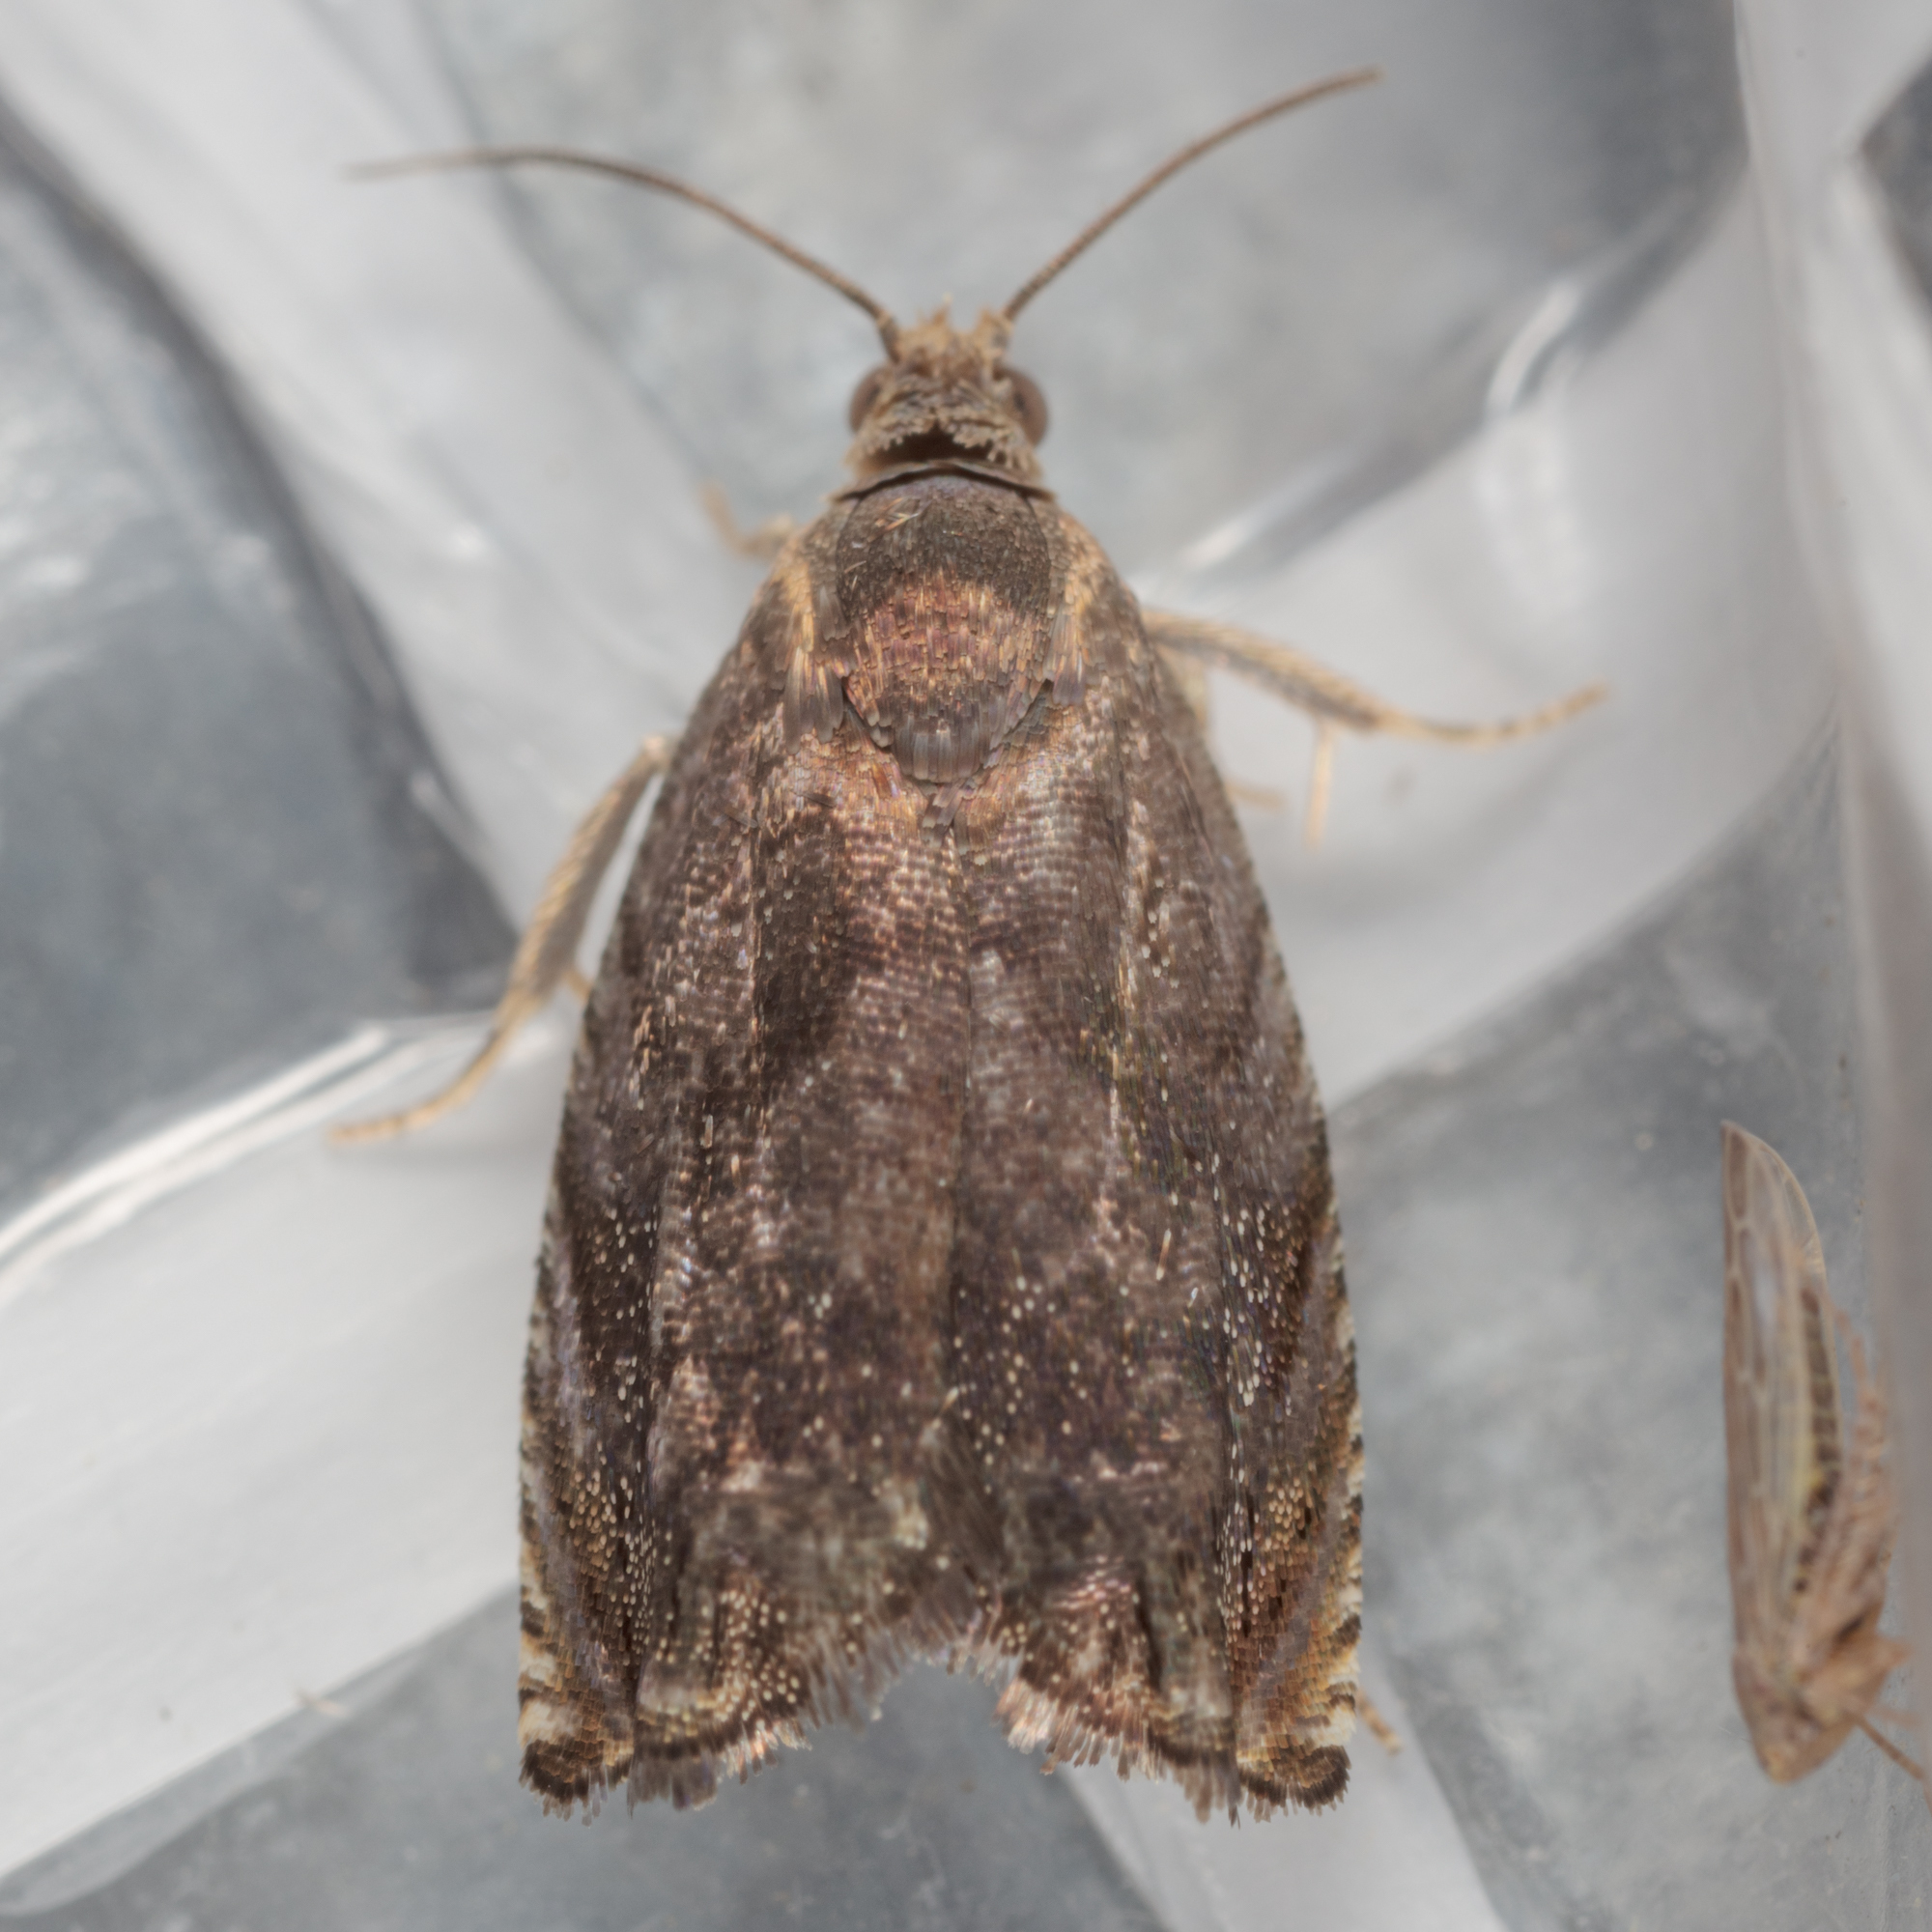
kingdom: Animalia
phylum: Arthropoda
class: Insecta
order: Lepidoptera
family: Tortricidae
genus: Cydia
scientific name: Cydia caryana
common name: Hickory shuckworm moth
